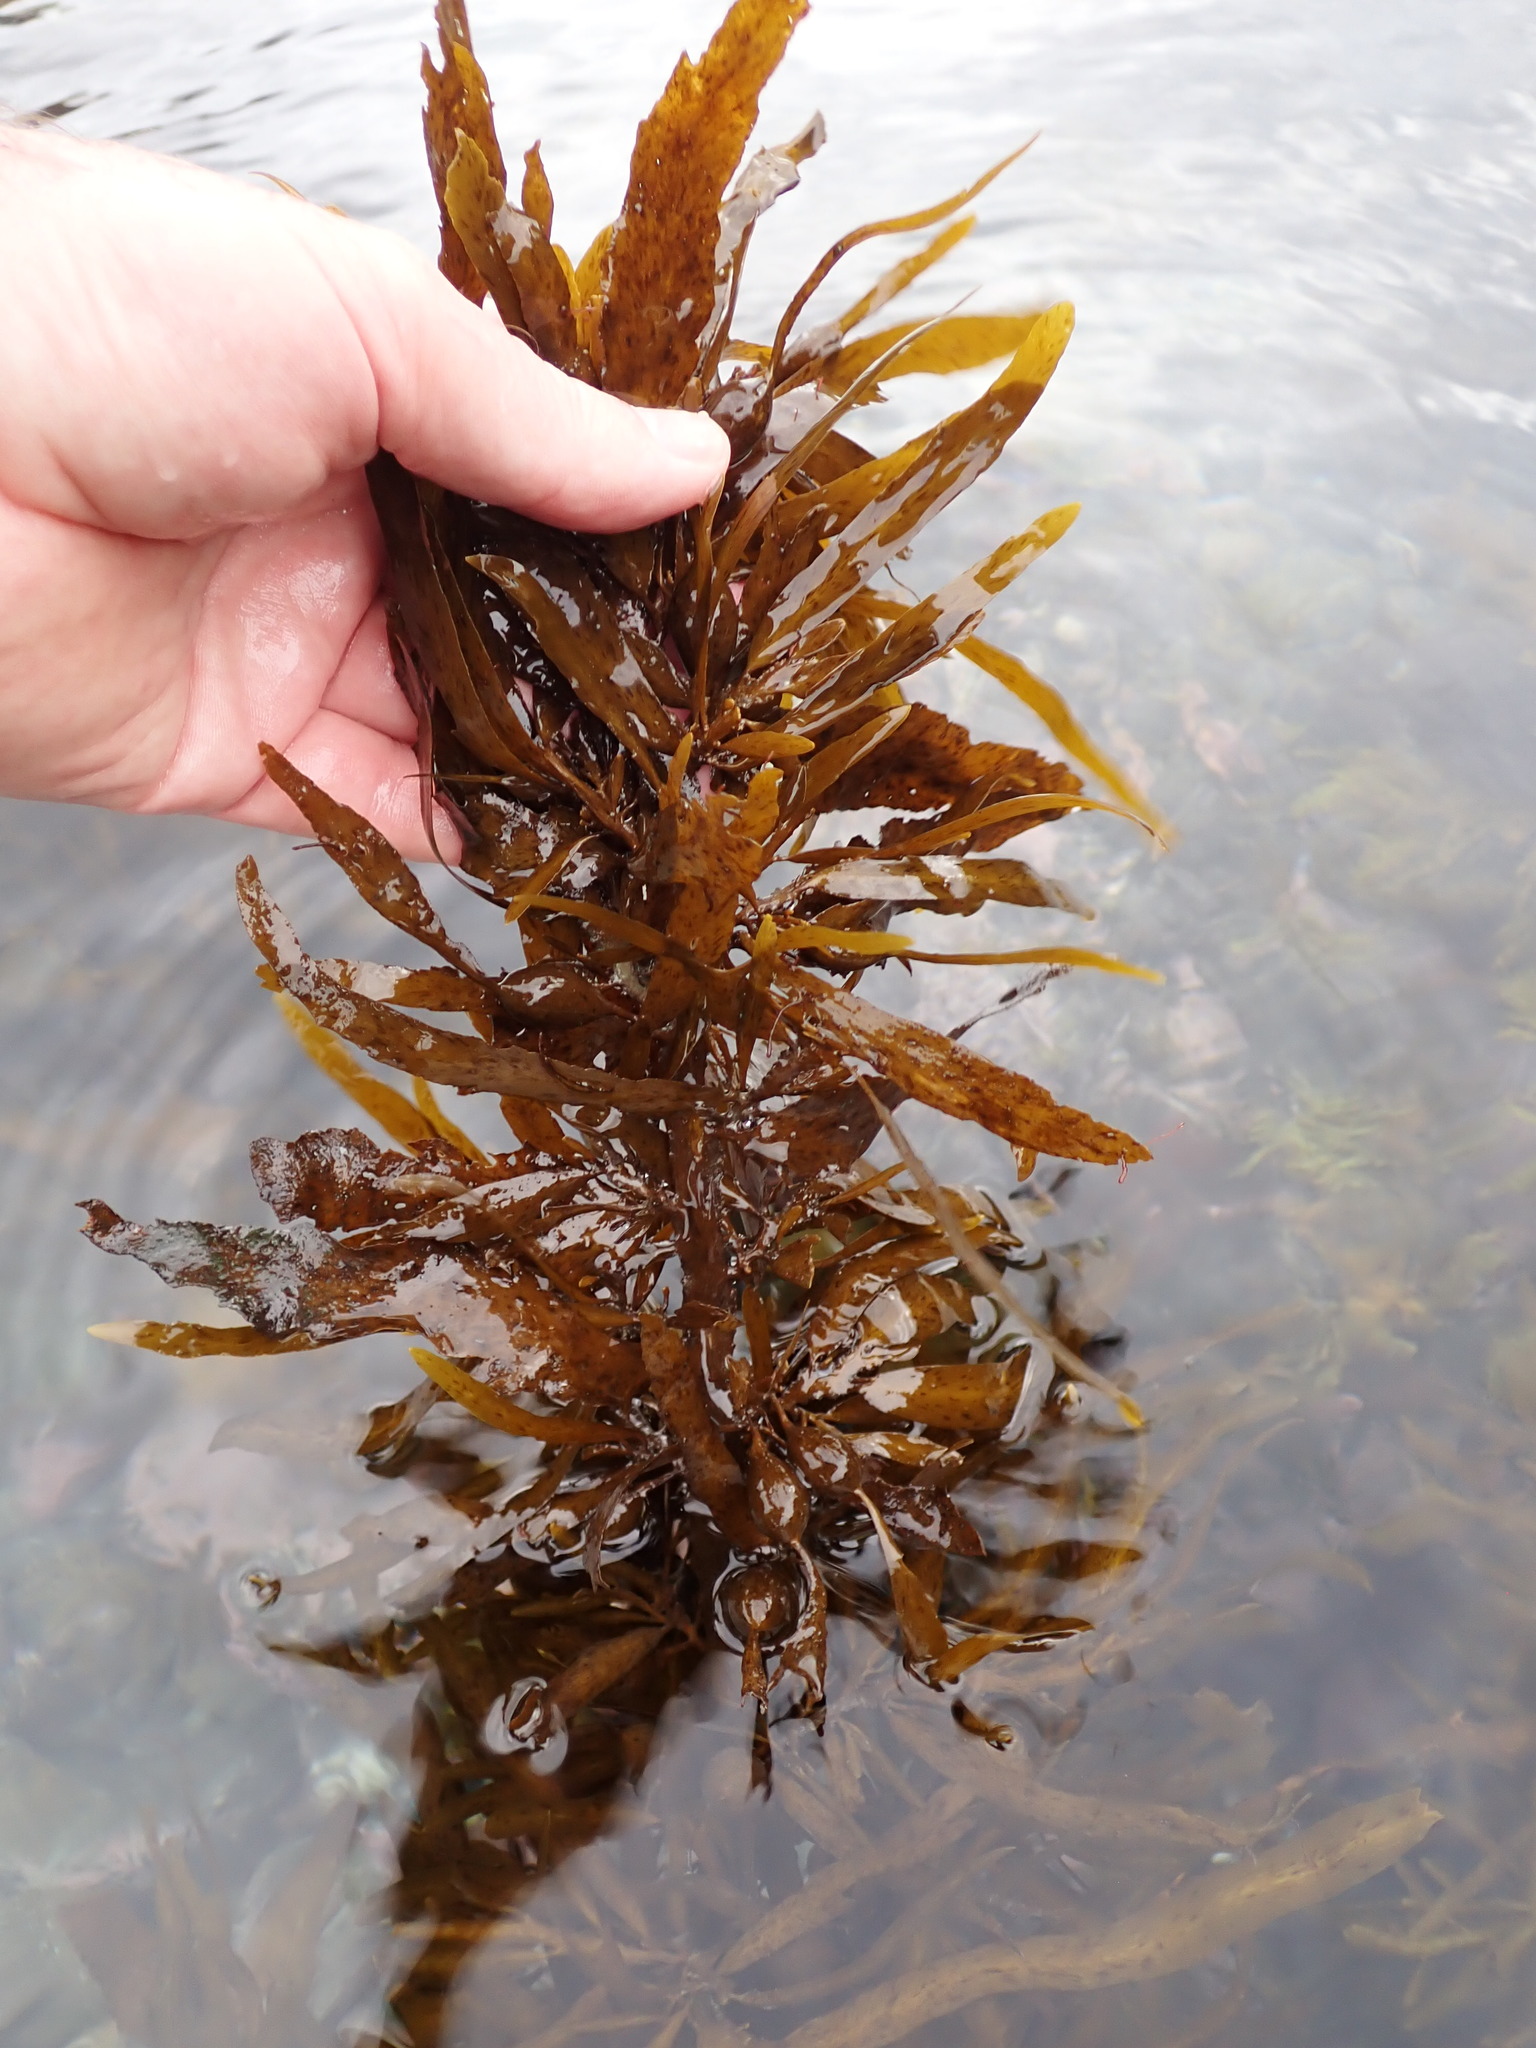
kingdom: Chromista
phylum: Ochrophyta
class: Phaeophyceae
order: Fucales
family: Sargassaceae
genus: Carpophyllum
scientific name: Carpophyllum flexuosum
